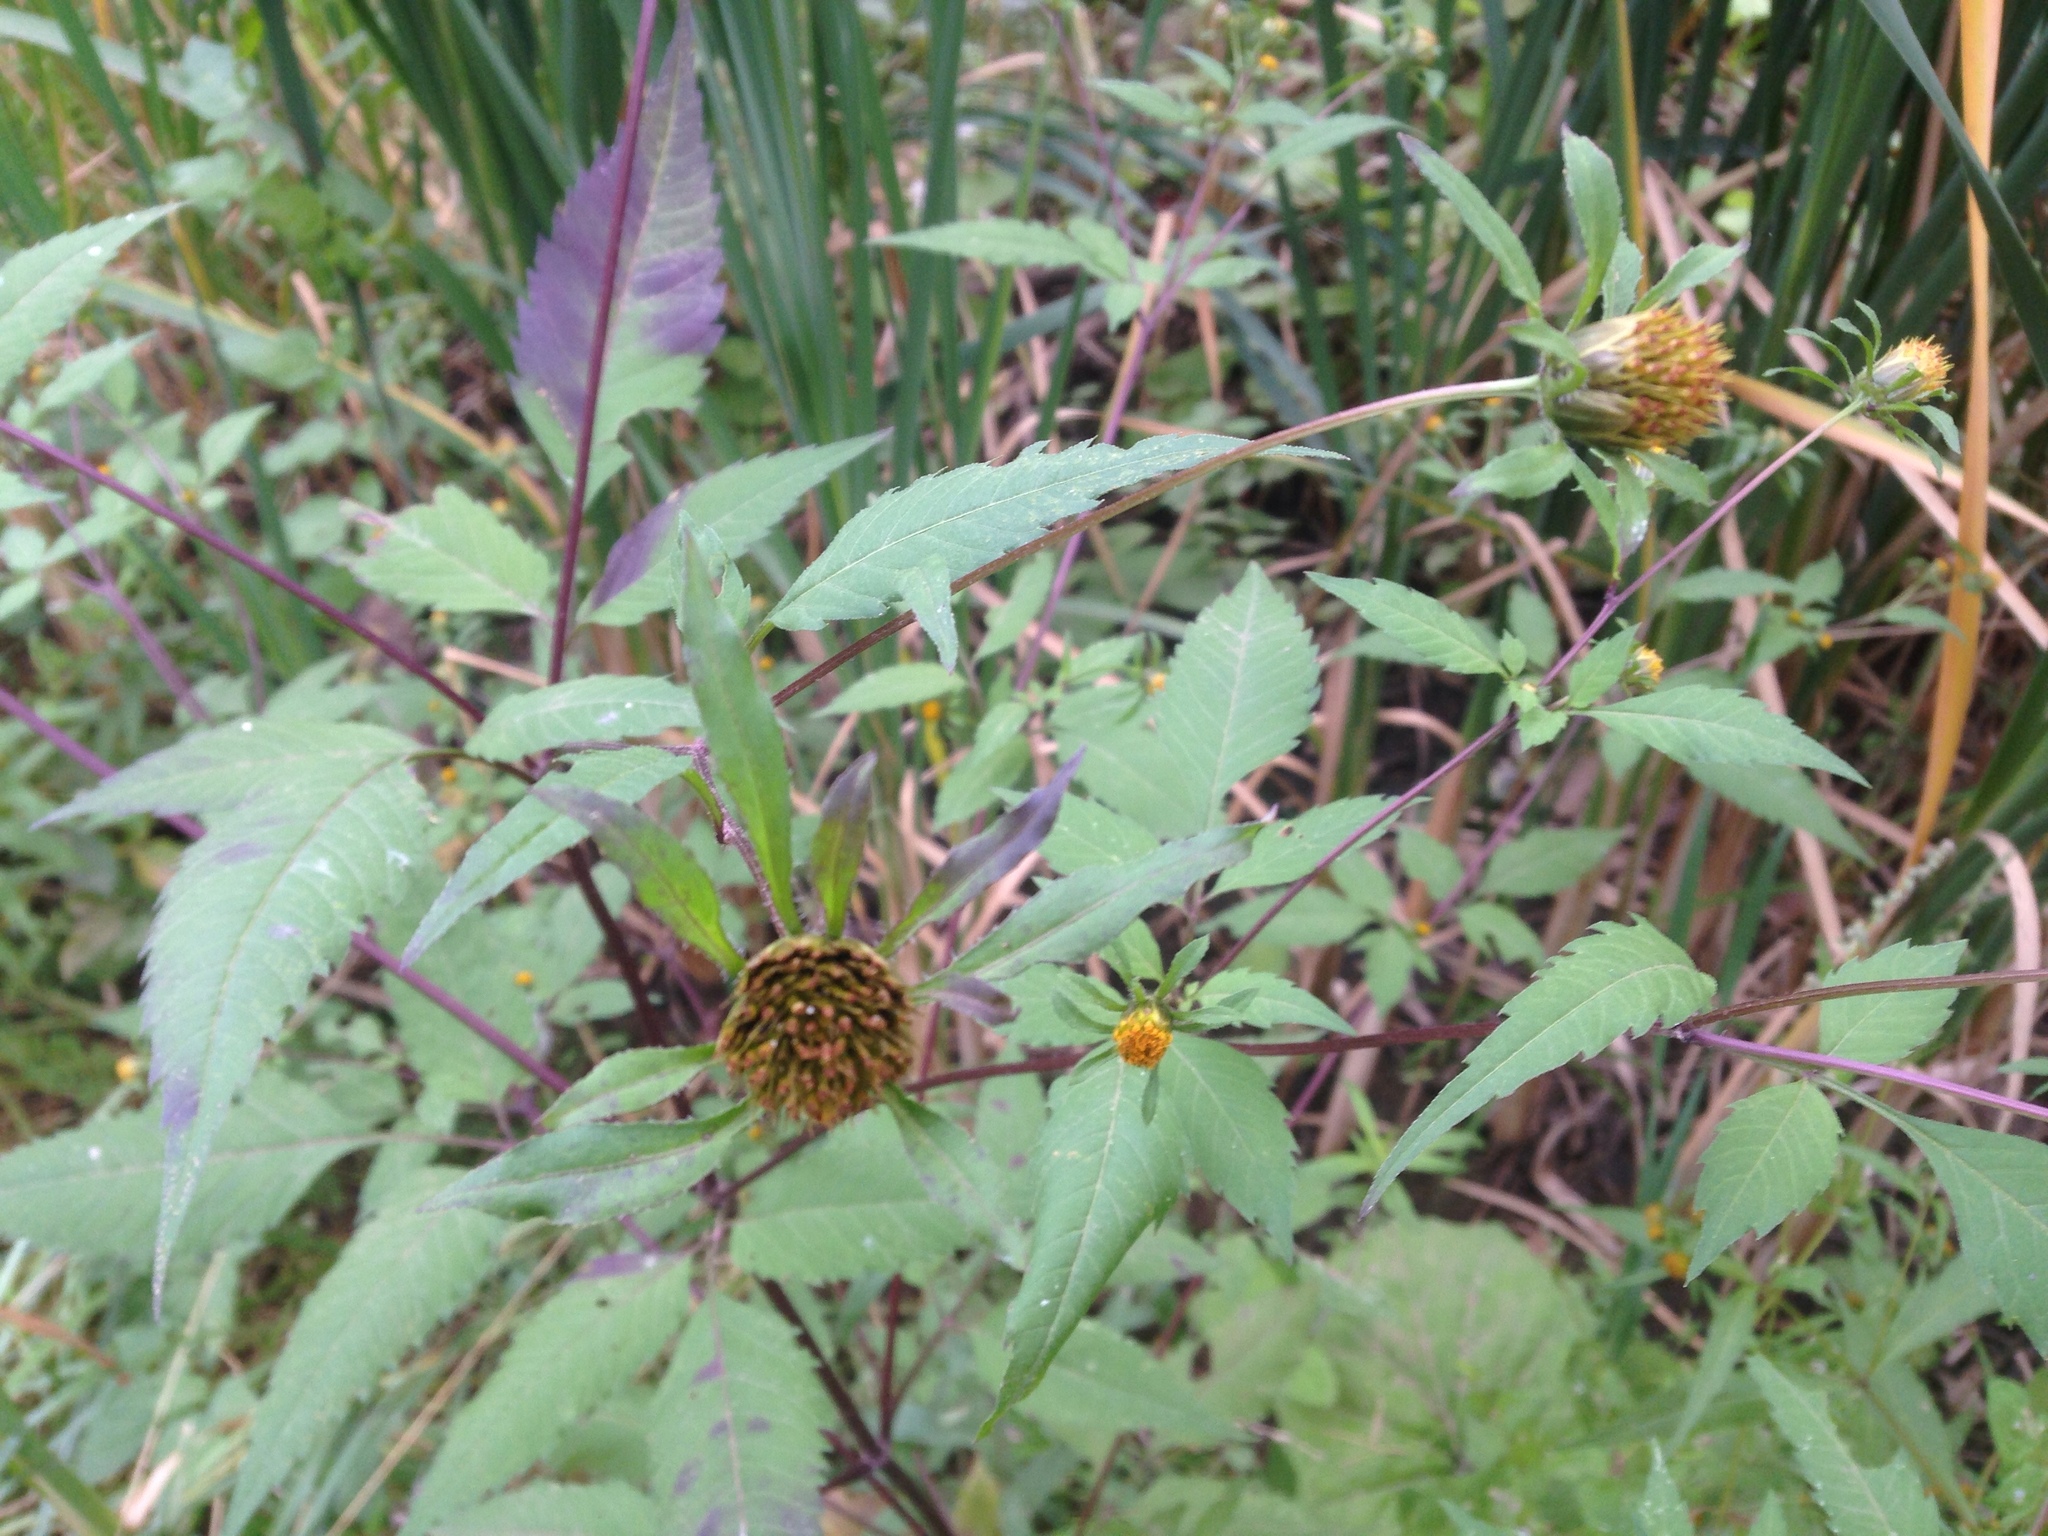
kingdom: Plantae
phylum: Tracheophyta
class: Magnoliopsida
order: Asterales
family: Asteraceae
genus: Bidens
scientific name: Bidens frondosa
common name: Beggarticks
